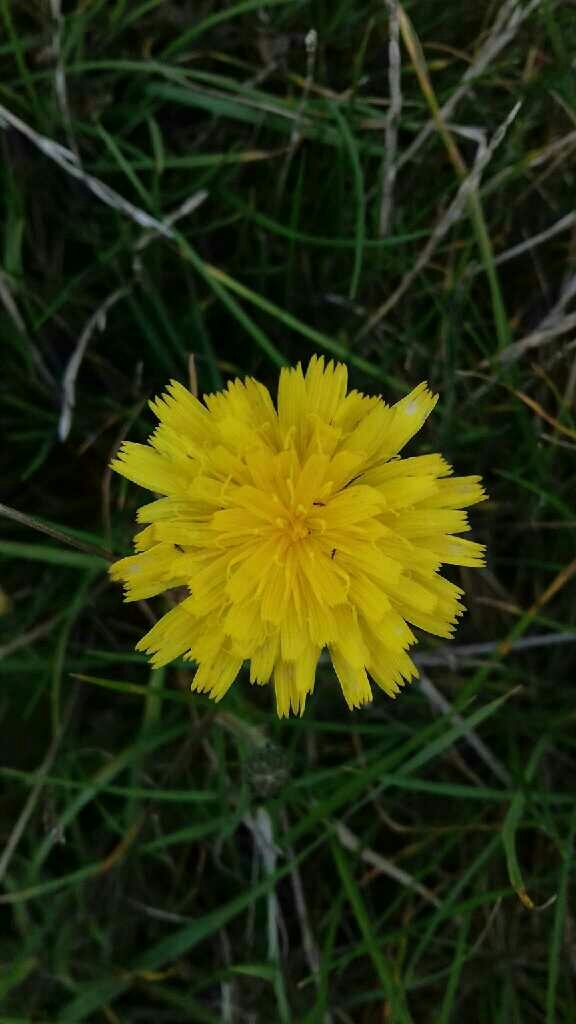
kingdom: Plantae
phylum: Tracheophyta
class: Magnoliopsida
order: Asterales
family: Asteraceae
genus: Picris
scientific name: Picris hieracioides
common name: Hawkweed oxtongue
